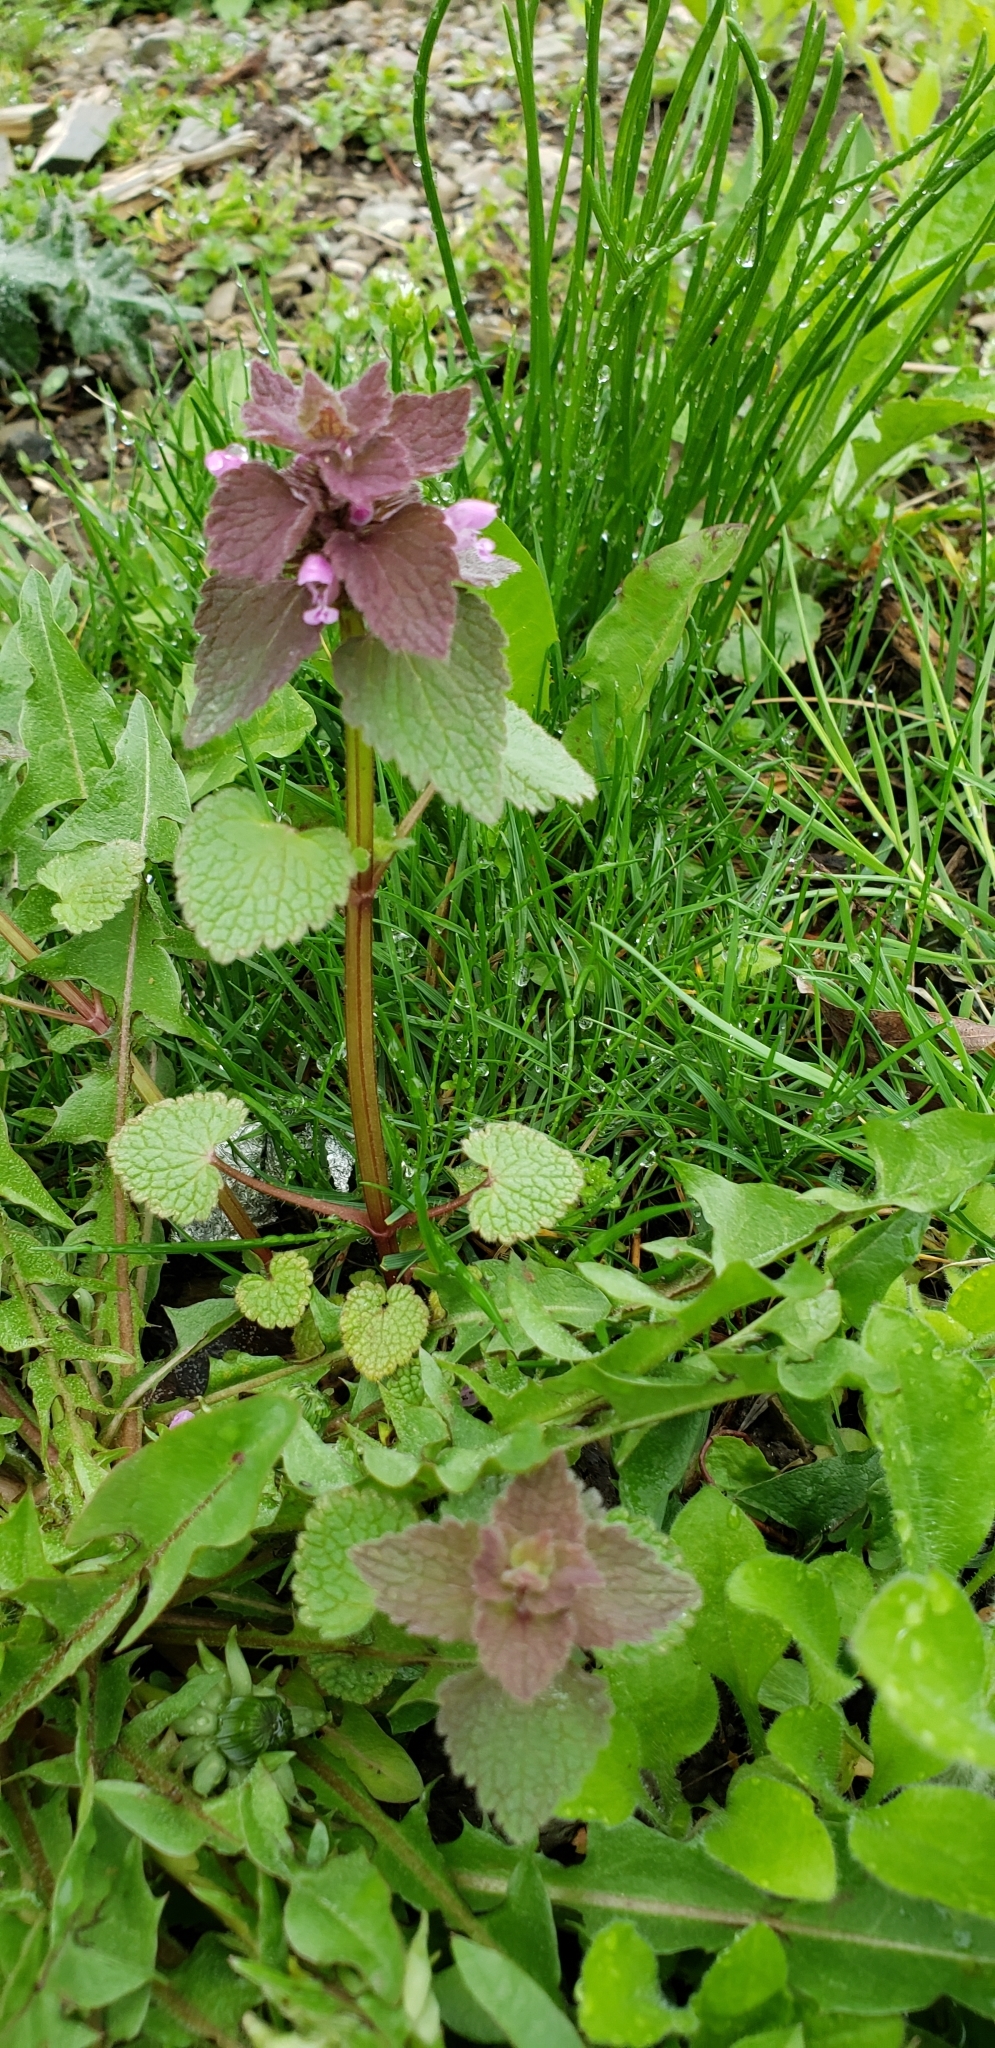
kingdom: Plantae
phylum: Tracheophyta
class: Magnoliopsida
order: Lamiales
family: Lamiaceae
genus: Lamium
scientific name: Lamium purpureum
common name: Red dead-nettle
